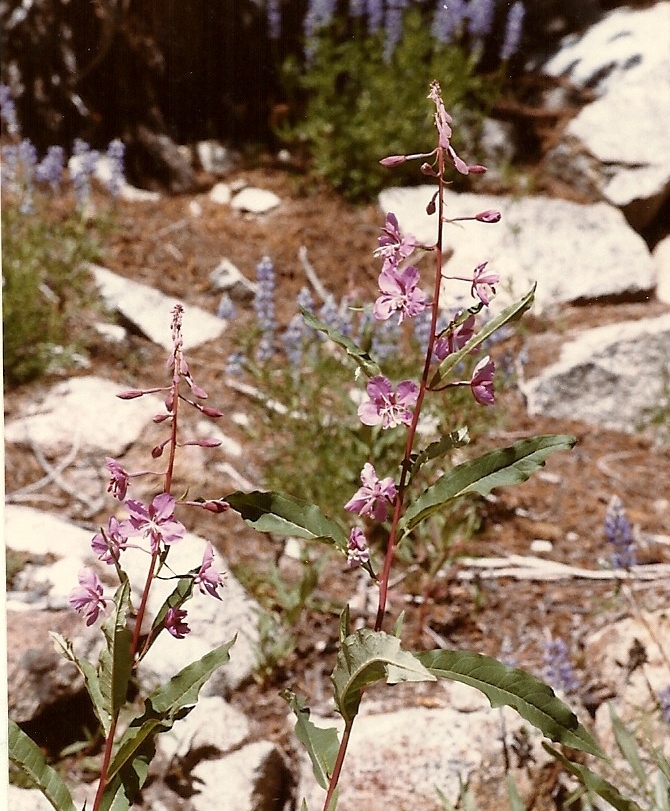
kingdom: Plantae
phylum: Tracheophyta
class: Magnoliopsida
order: Myrtales
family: Onagraceae
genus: Chamaenerion
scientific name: Chamaenerion angustifolium
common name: Fireweed
